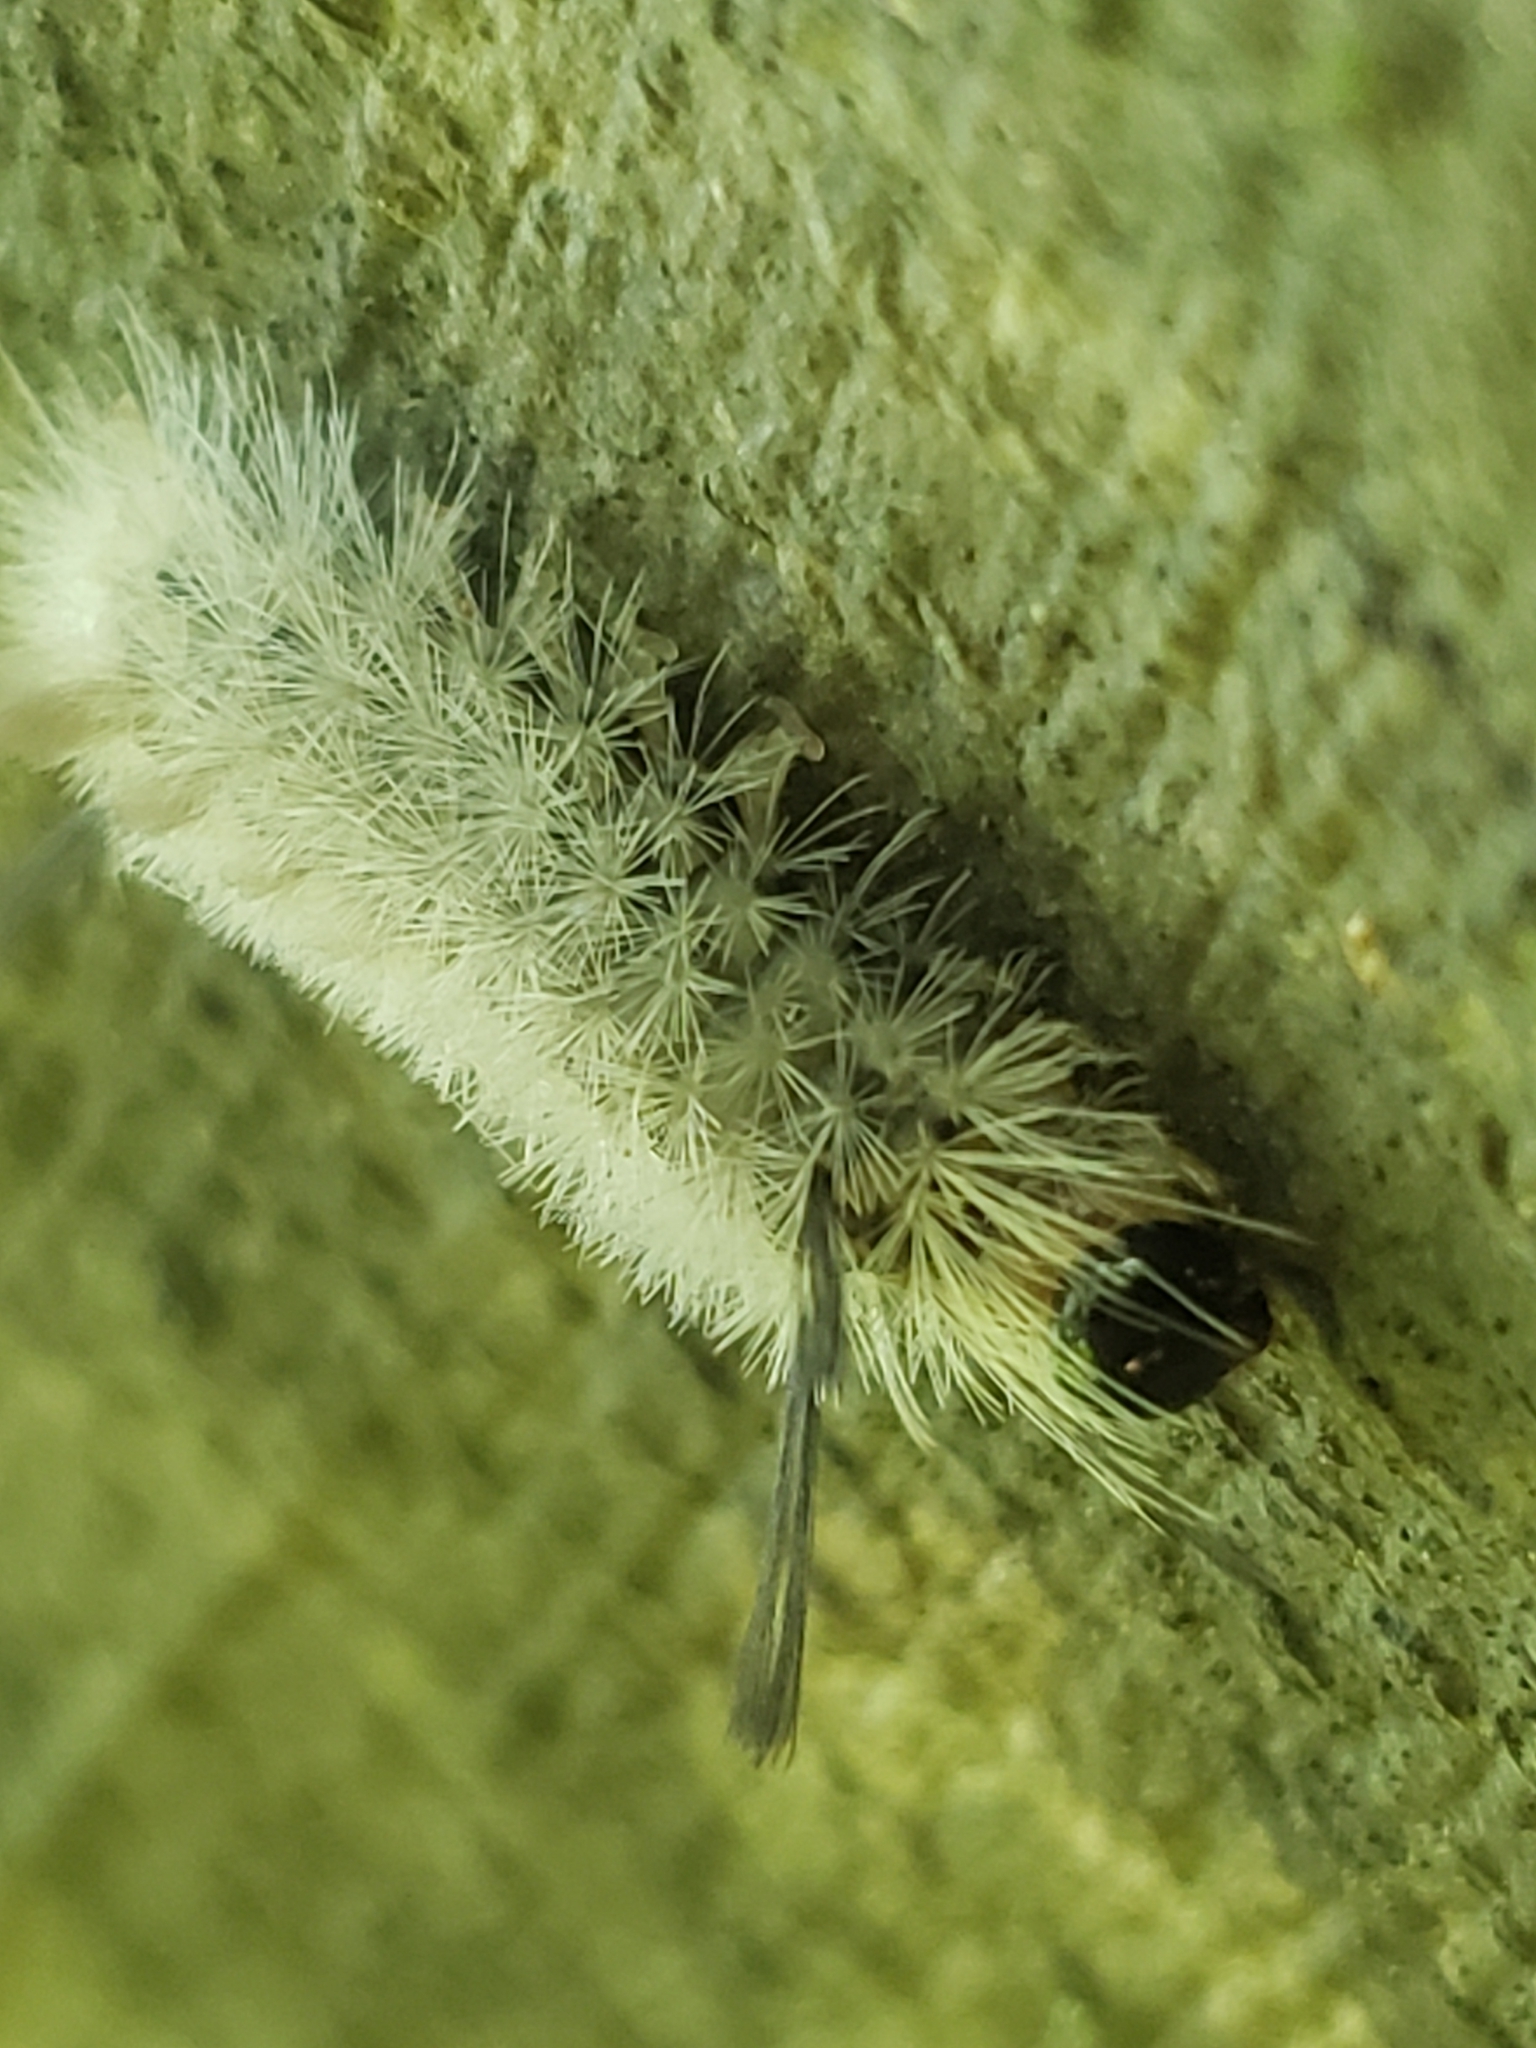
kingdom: Animalia
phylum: Arthropoda
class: Insecta
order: Lepidoptera
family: Erebidae
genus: Halysidota
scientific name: Halysidota tessellaris
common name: Banded tussock moth
